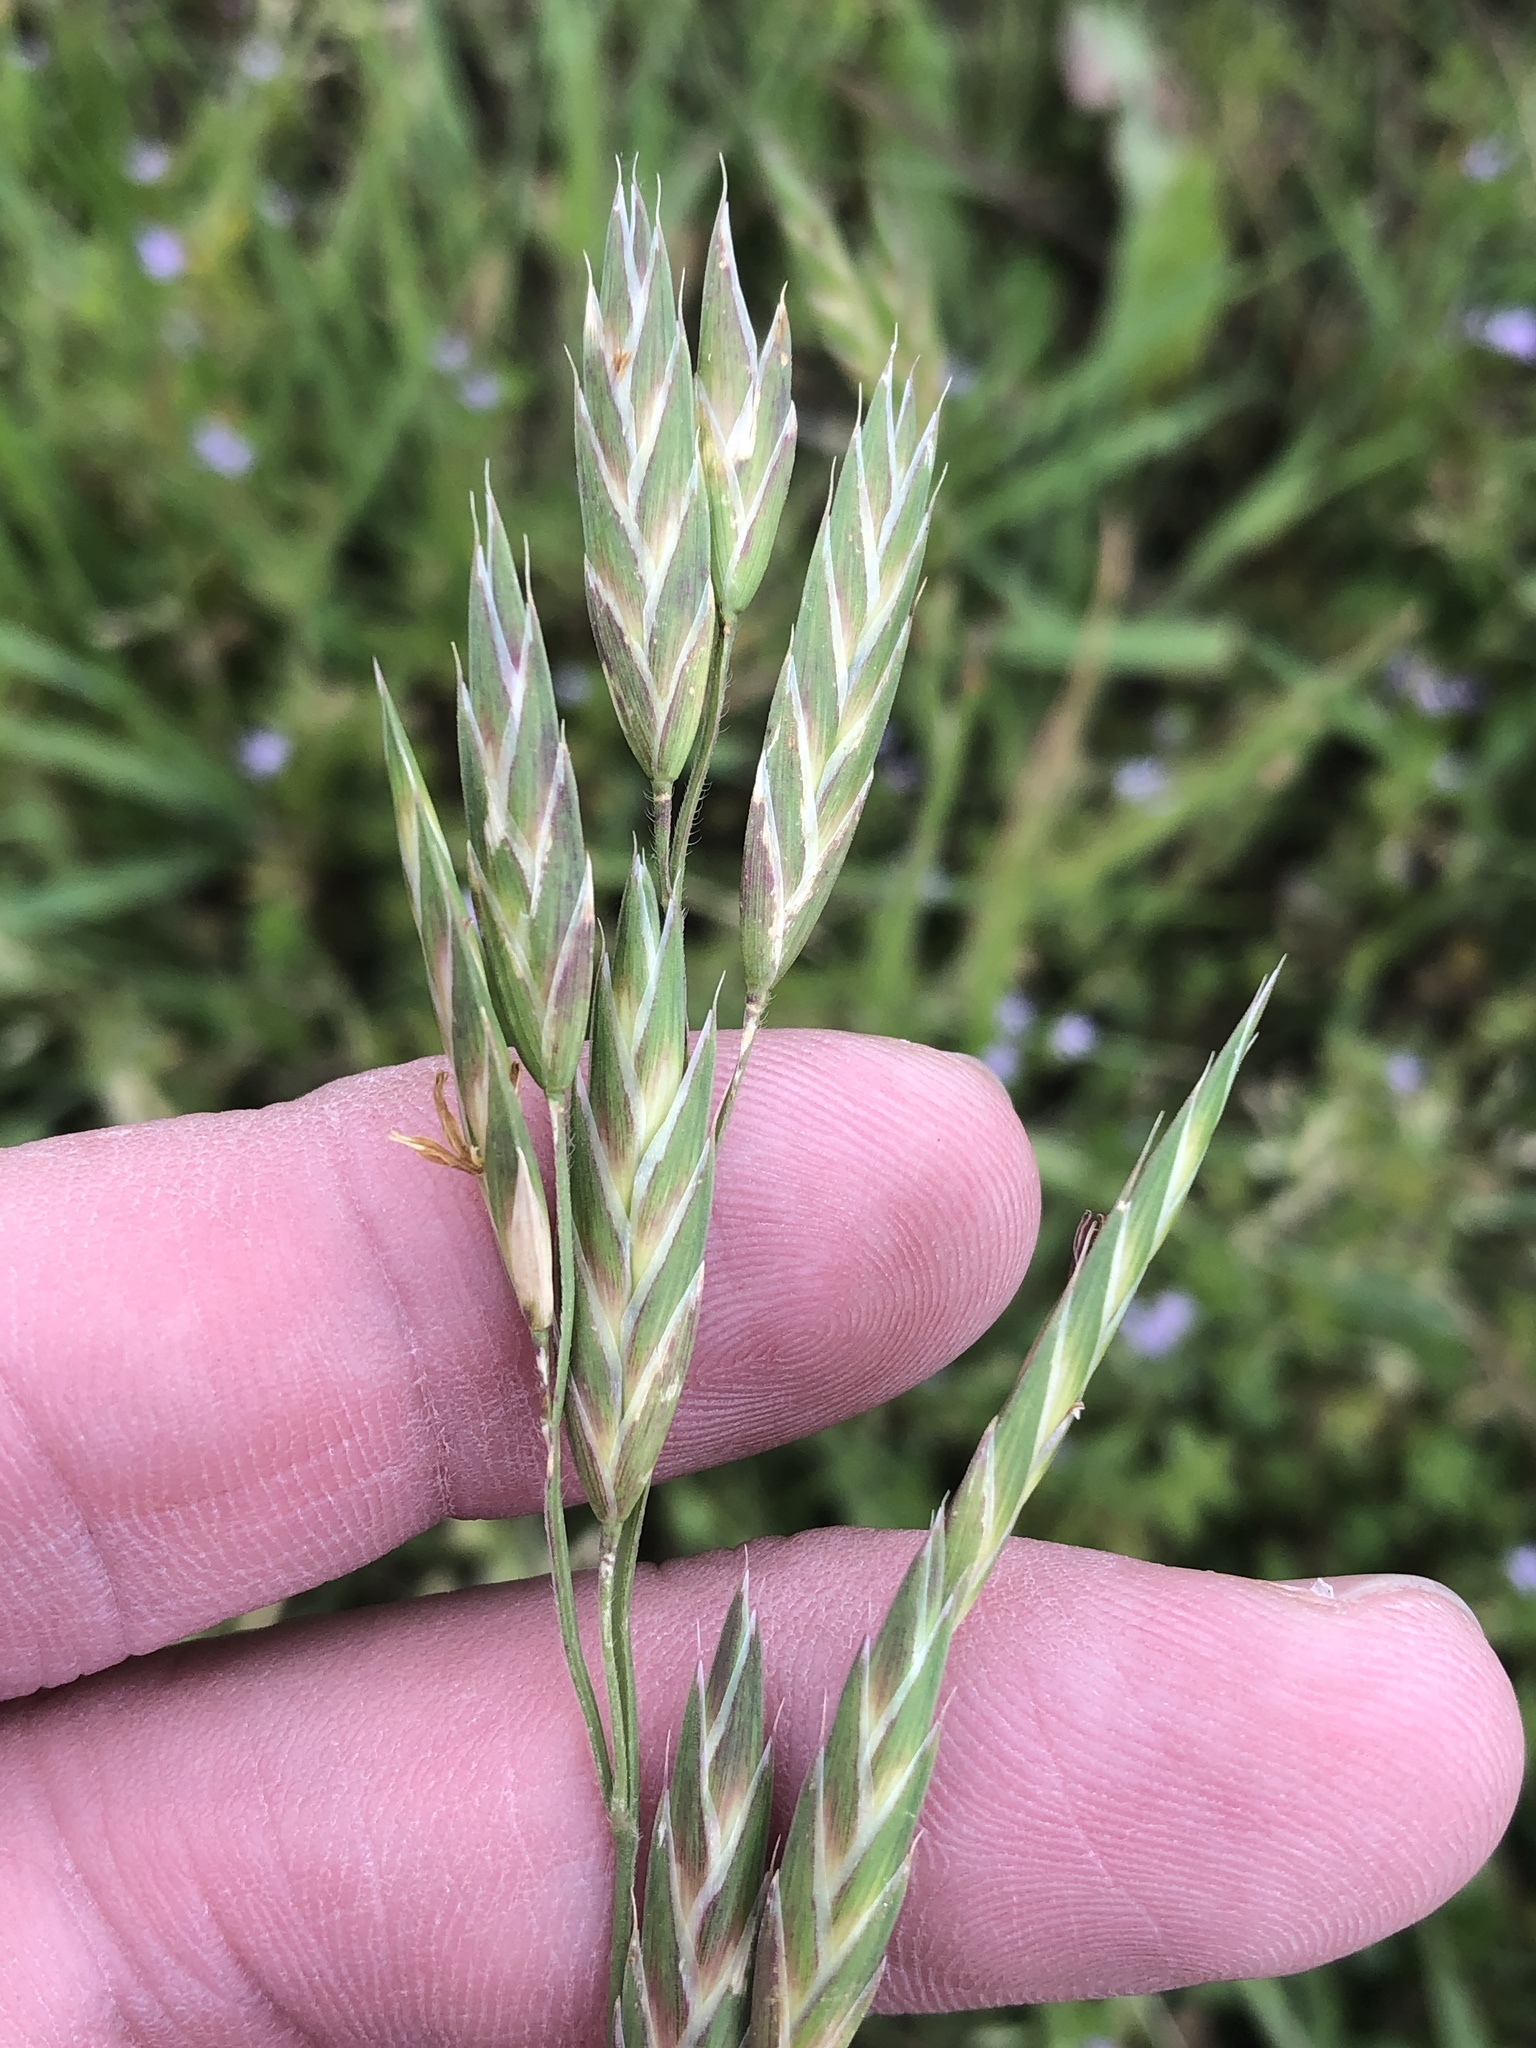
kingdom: Plantae
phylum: Tracheophyta
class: Liliopsida
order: Poales
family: Poaceae
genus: Bromus
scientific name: Bromus catharticus
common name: Rescuegrass
